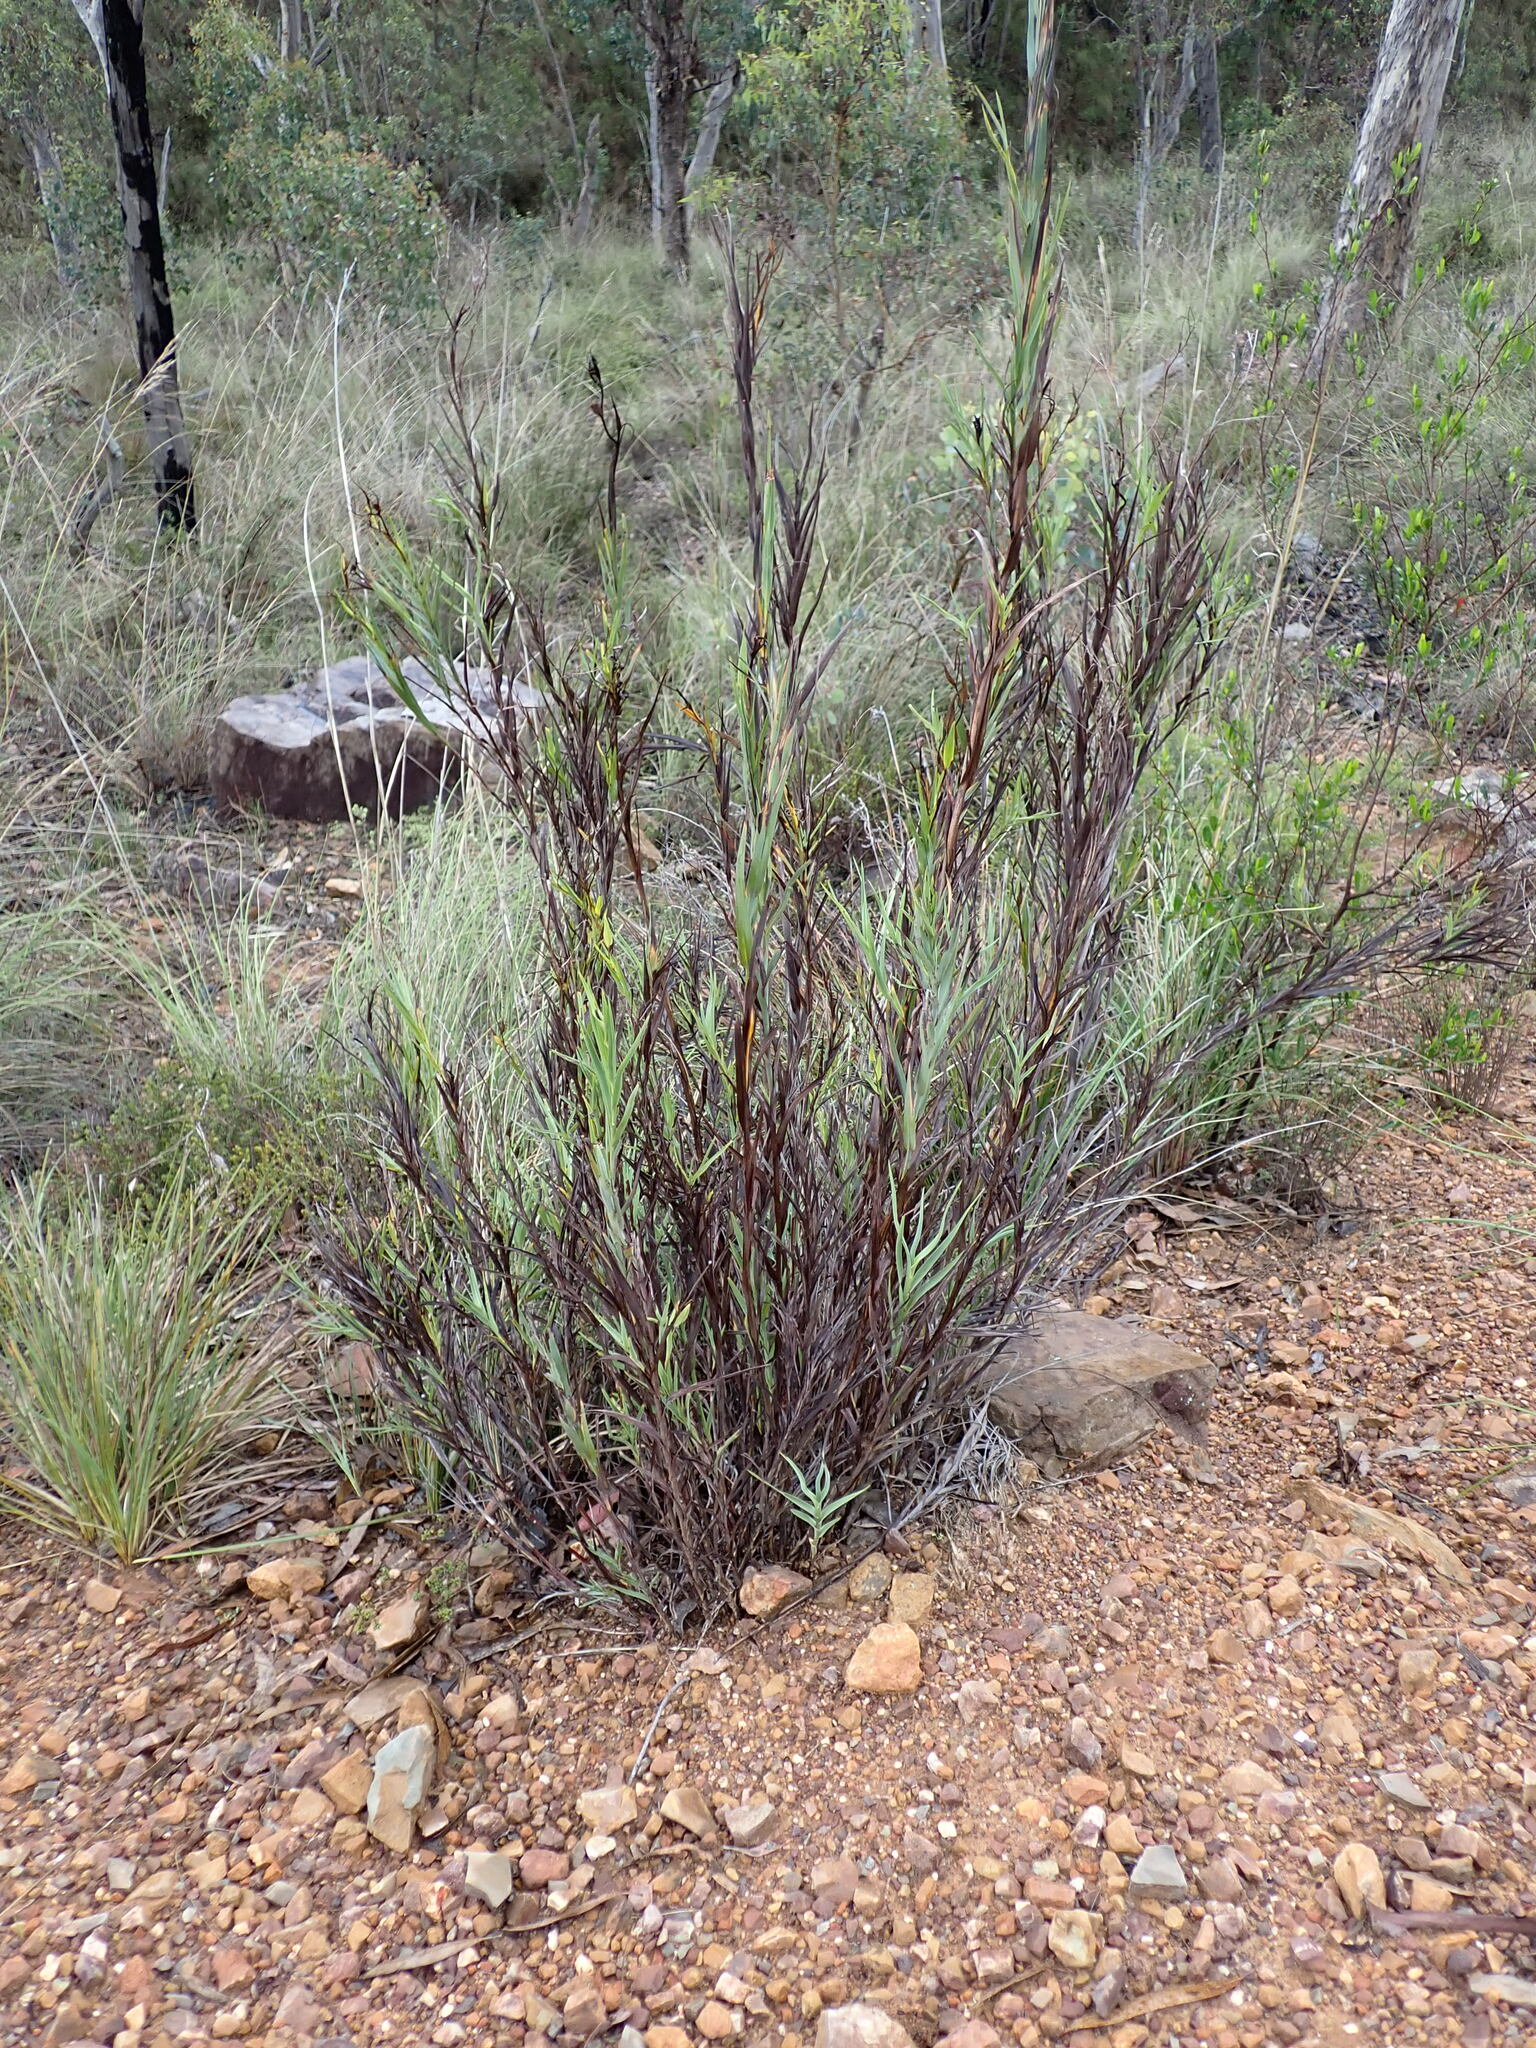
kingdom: Plantae
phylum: Tracheophyta
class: Liliopsida
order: Asparagales
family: Asphodelaceae
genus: Stypandra
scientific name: Stypandra glauca
